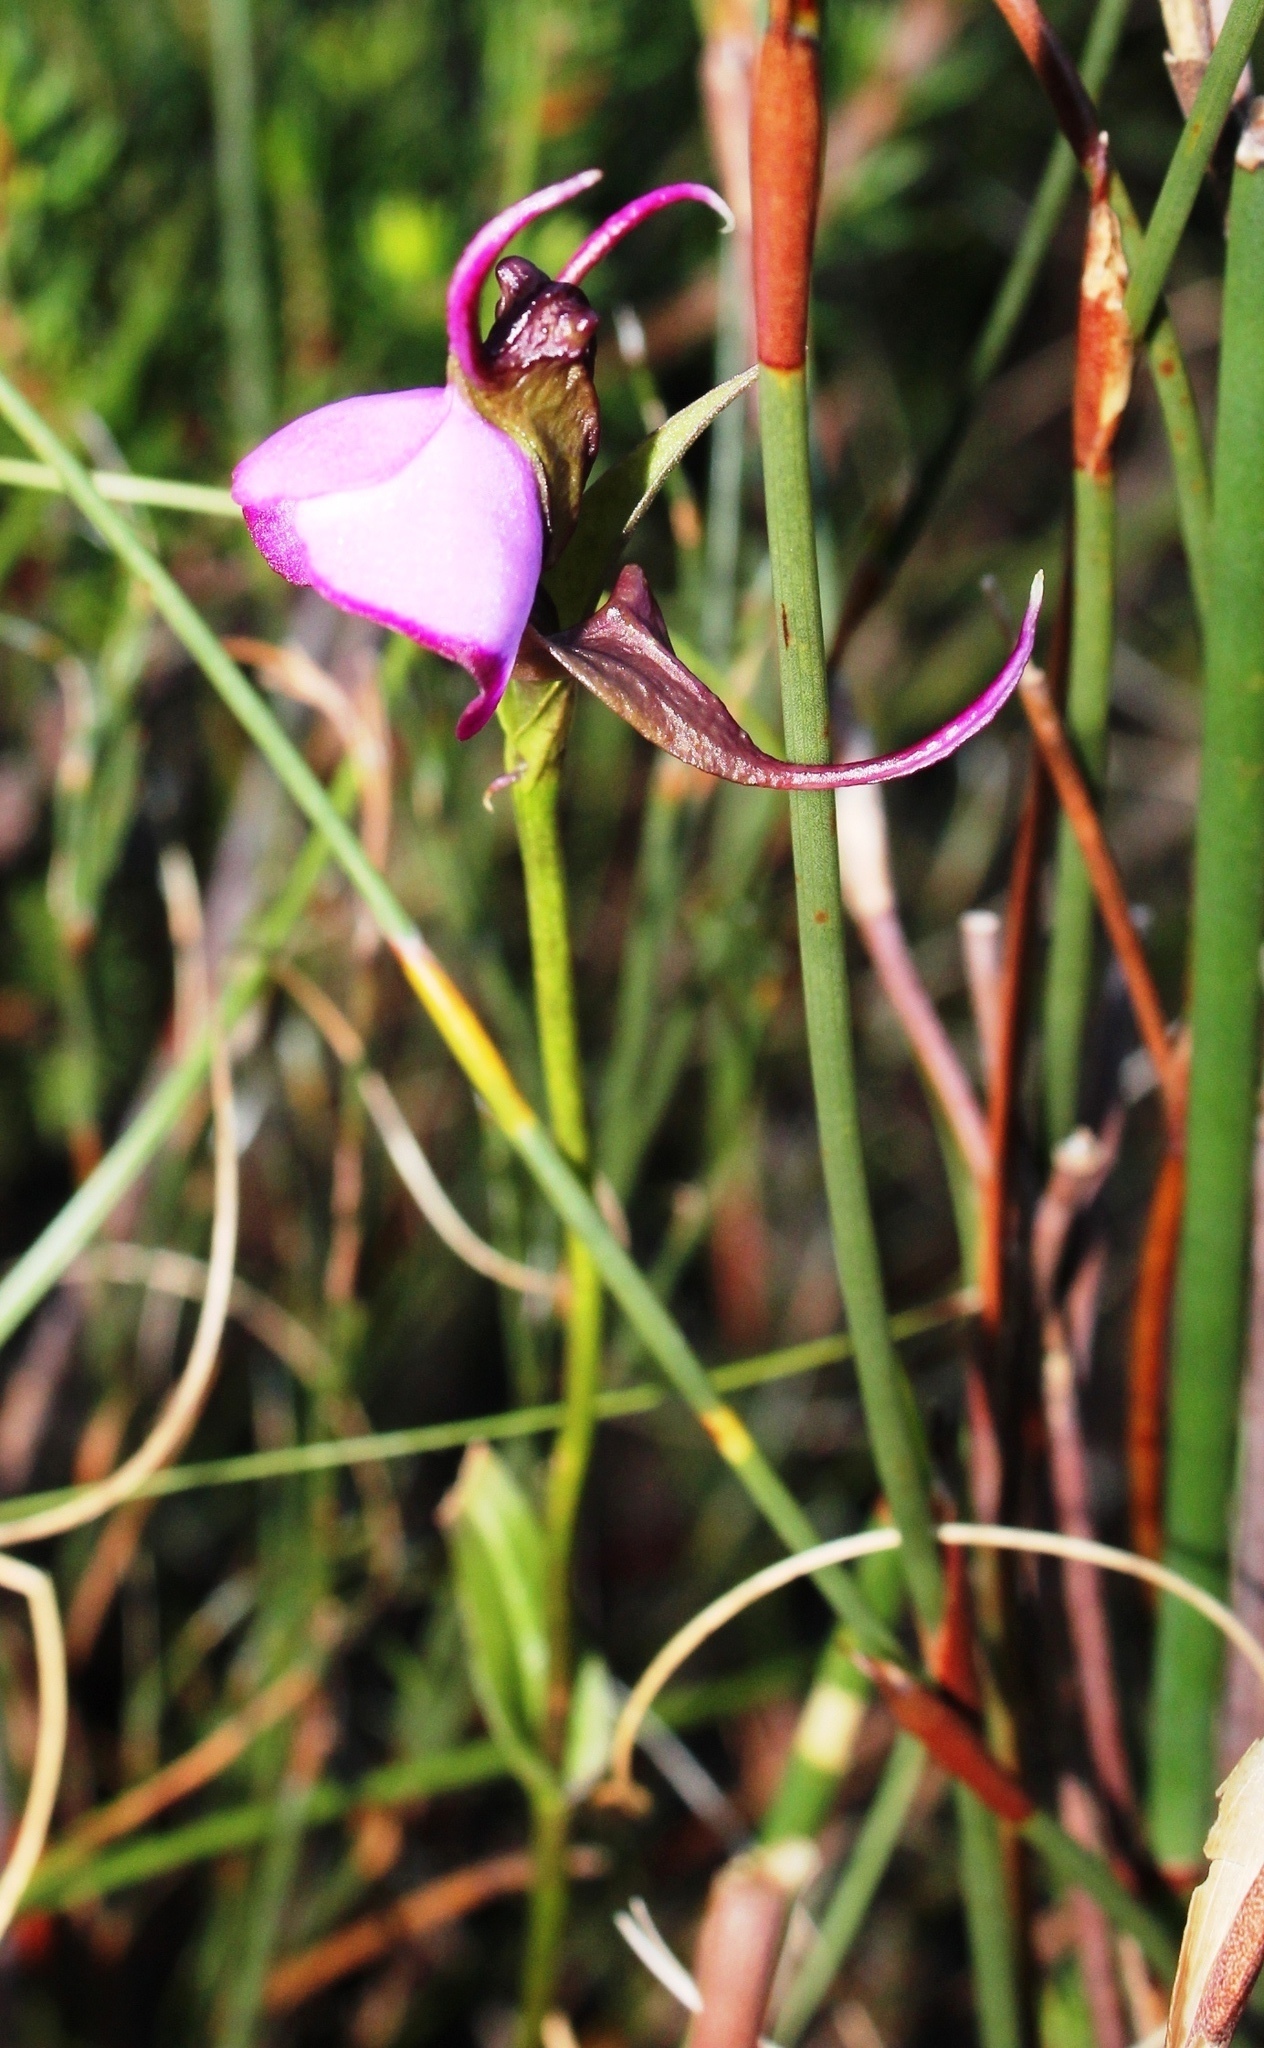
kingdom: Plantae
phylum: Tracheophyta
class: Liliopsida
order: Asparagales
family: Orchidaceae
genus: Disperis
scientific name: Disperis capensis
